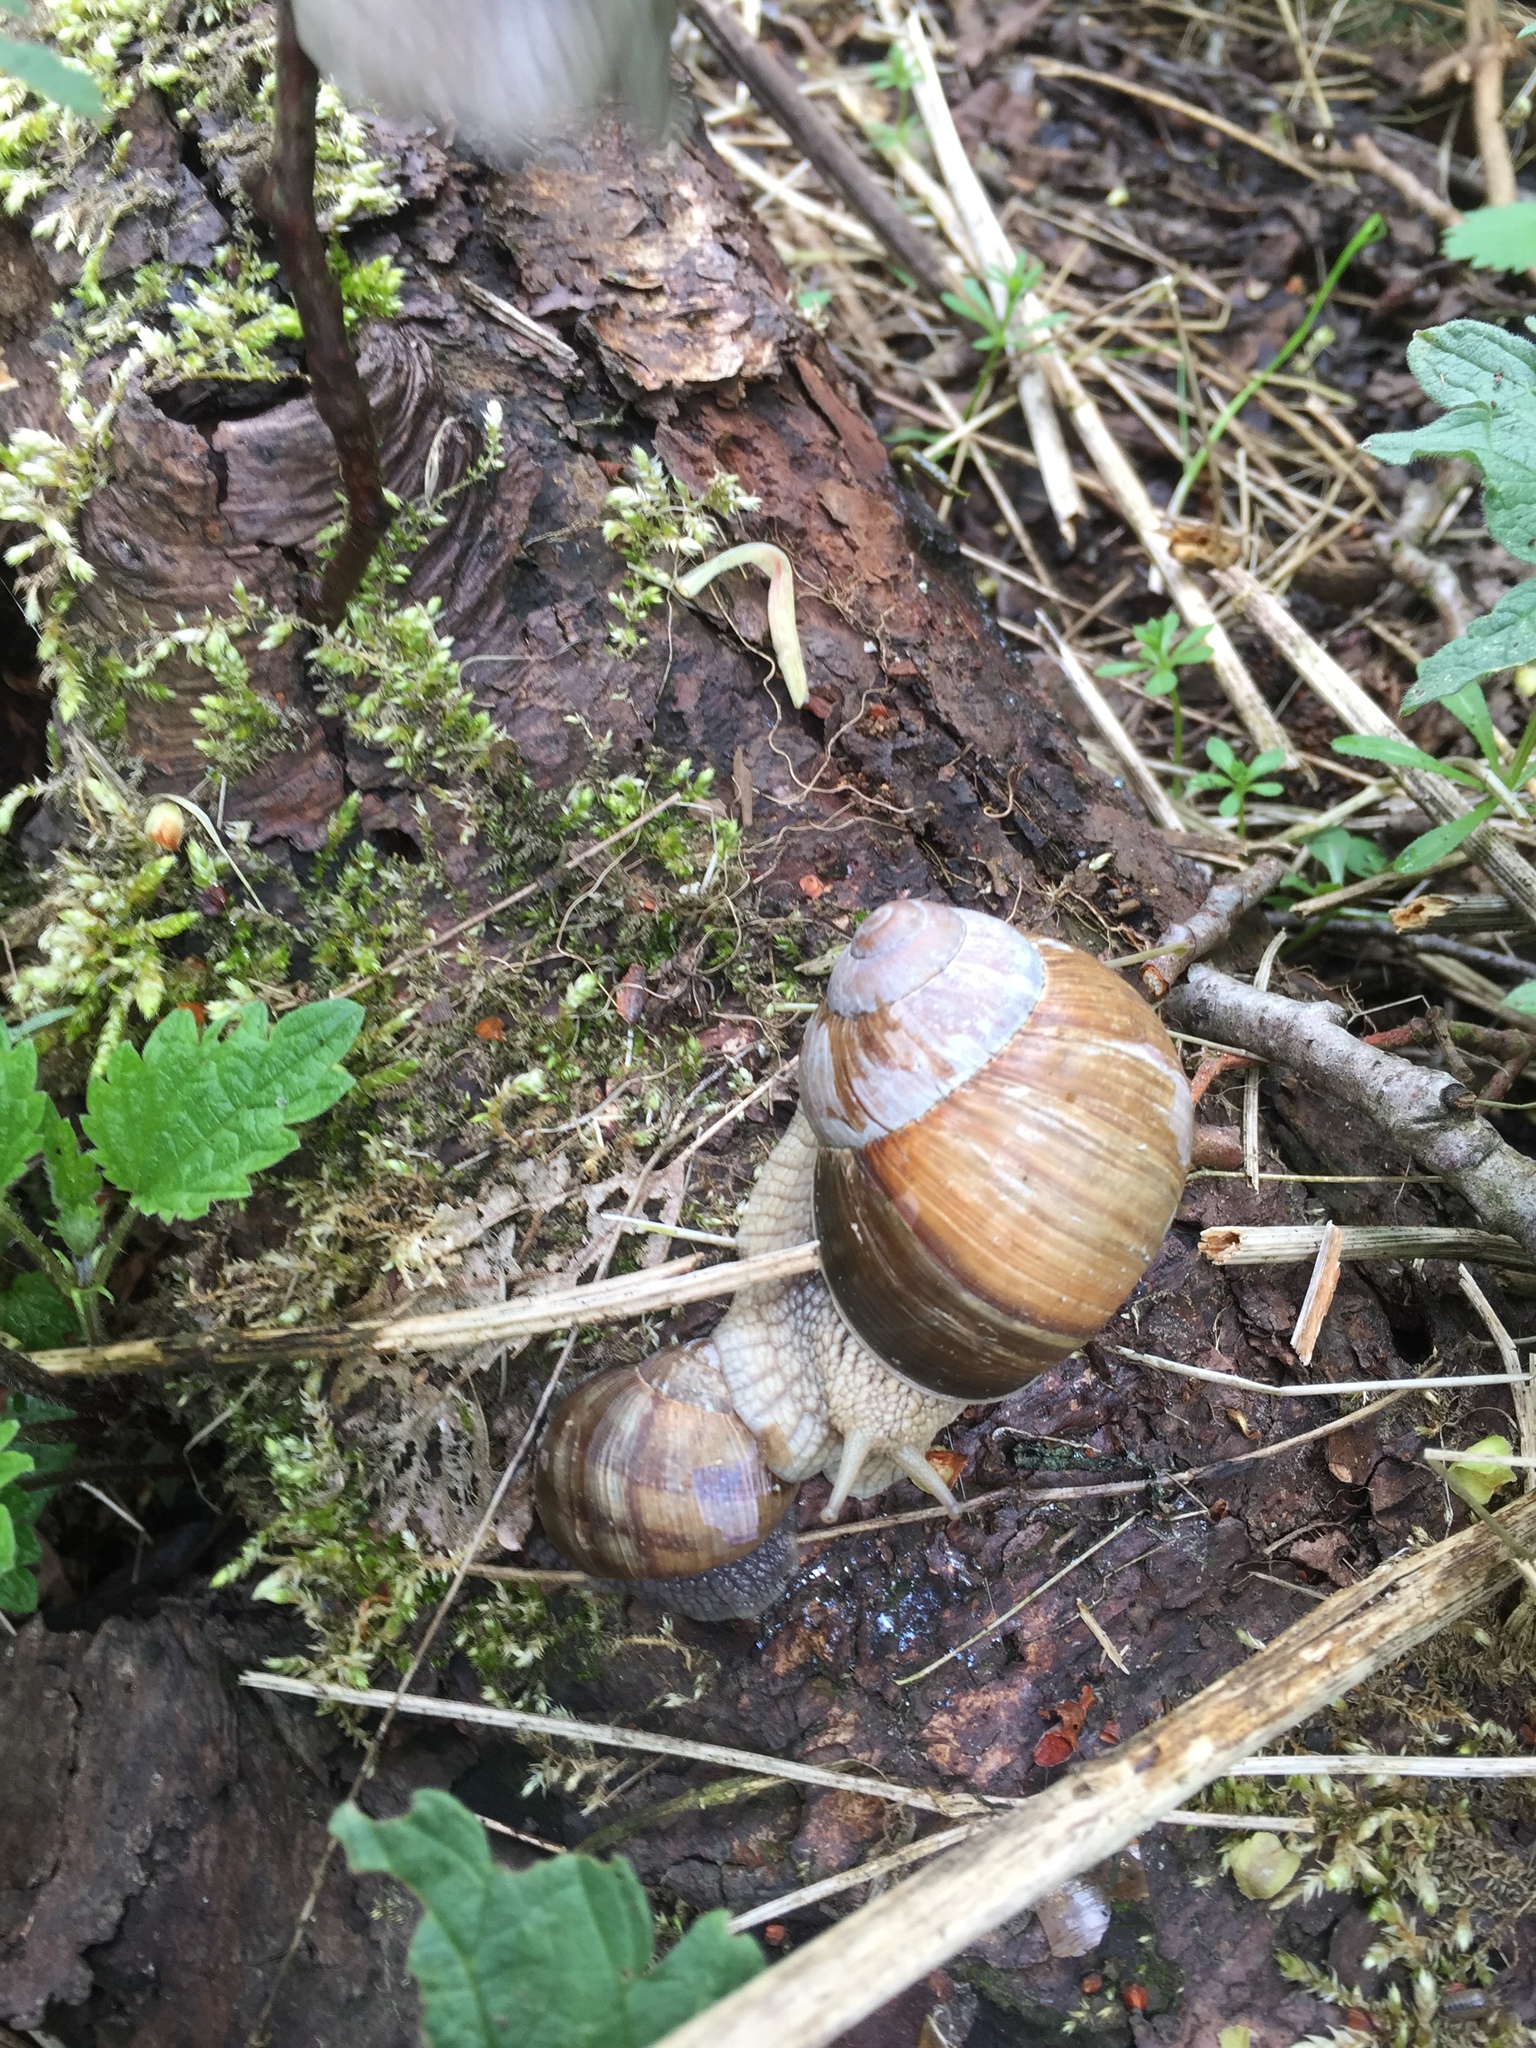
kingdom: Animalia
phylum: Mollusca
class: Gastropoda
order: Stylommatophora
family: Helicidae
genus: Helix
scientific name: Helix pomatia
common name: Roman snail
